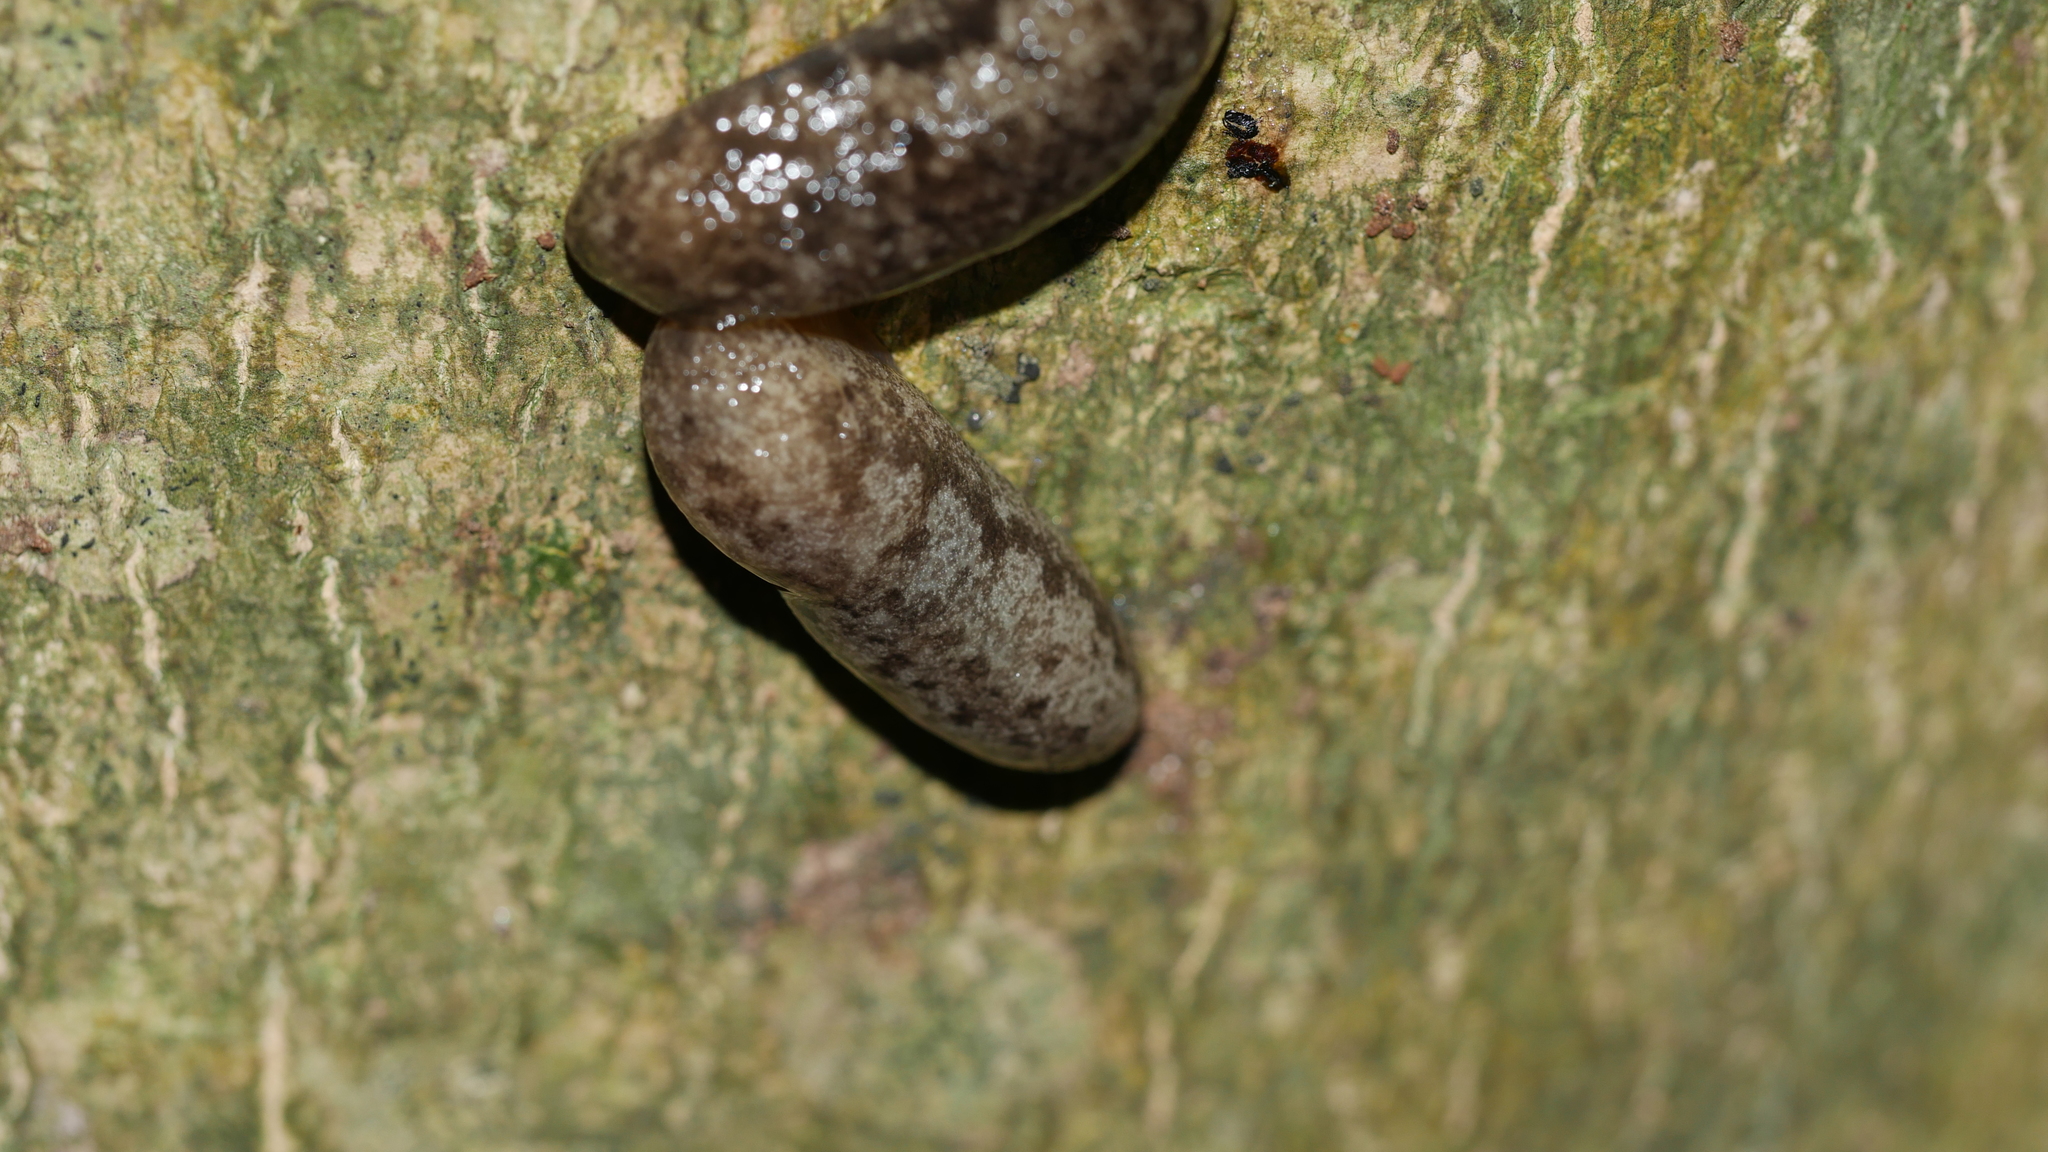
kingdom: Animalia
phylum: Mollusca
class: Gastropoda
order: Stylommatophora
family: Philomycidae
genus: Megapallifera
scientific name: Megapallifera mutabilis
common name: Changeable mantleslug
